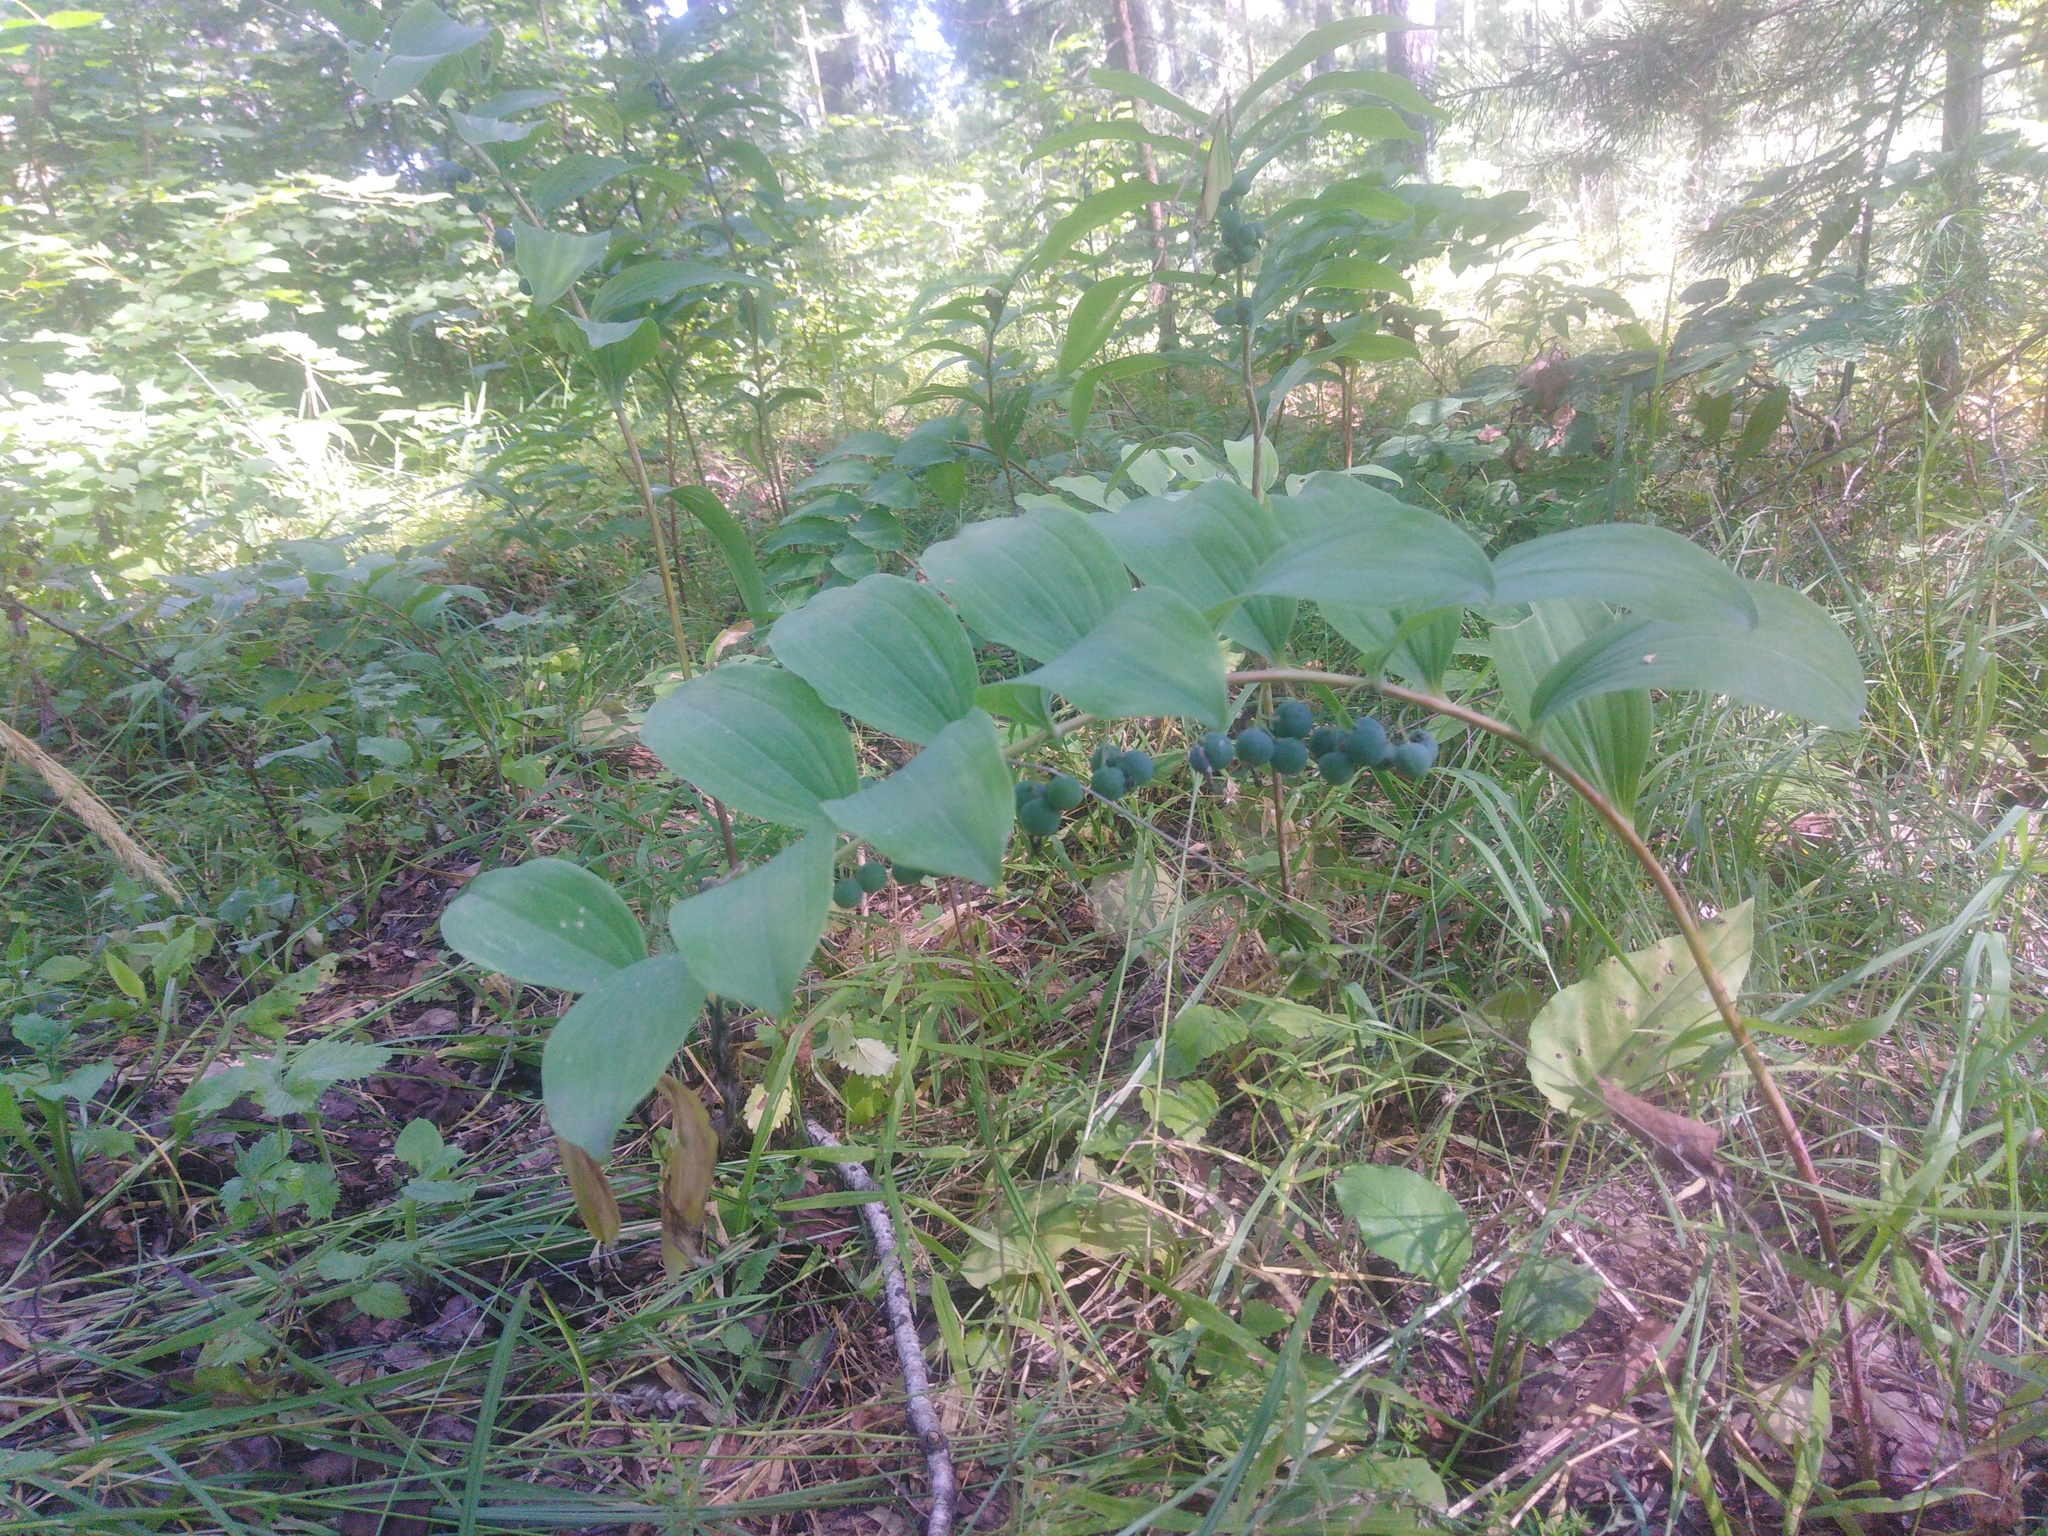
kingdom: Plantae
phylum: Tracheophyta
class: Liliopsida
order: Asparagales
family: Asparagaceae
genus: Polygonatum
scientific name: Polygonatum multiflorum
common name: Solomon's-seal
